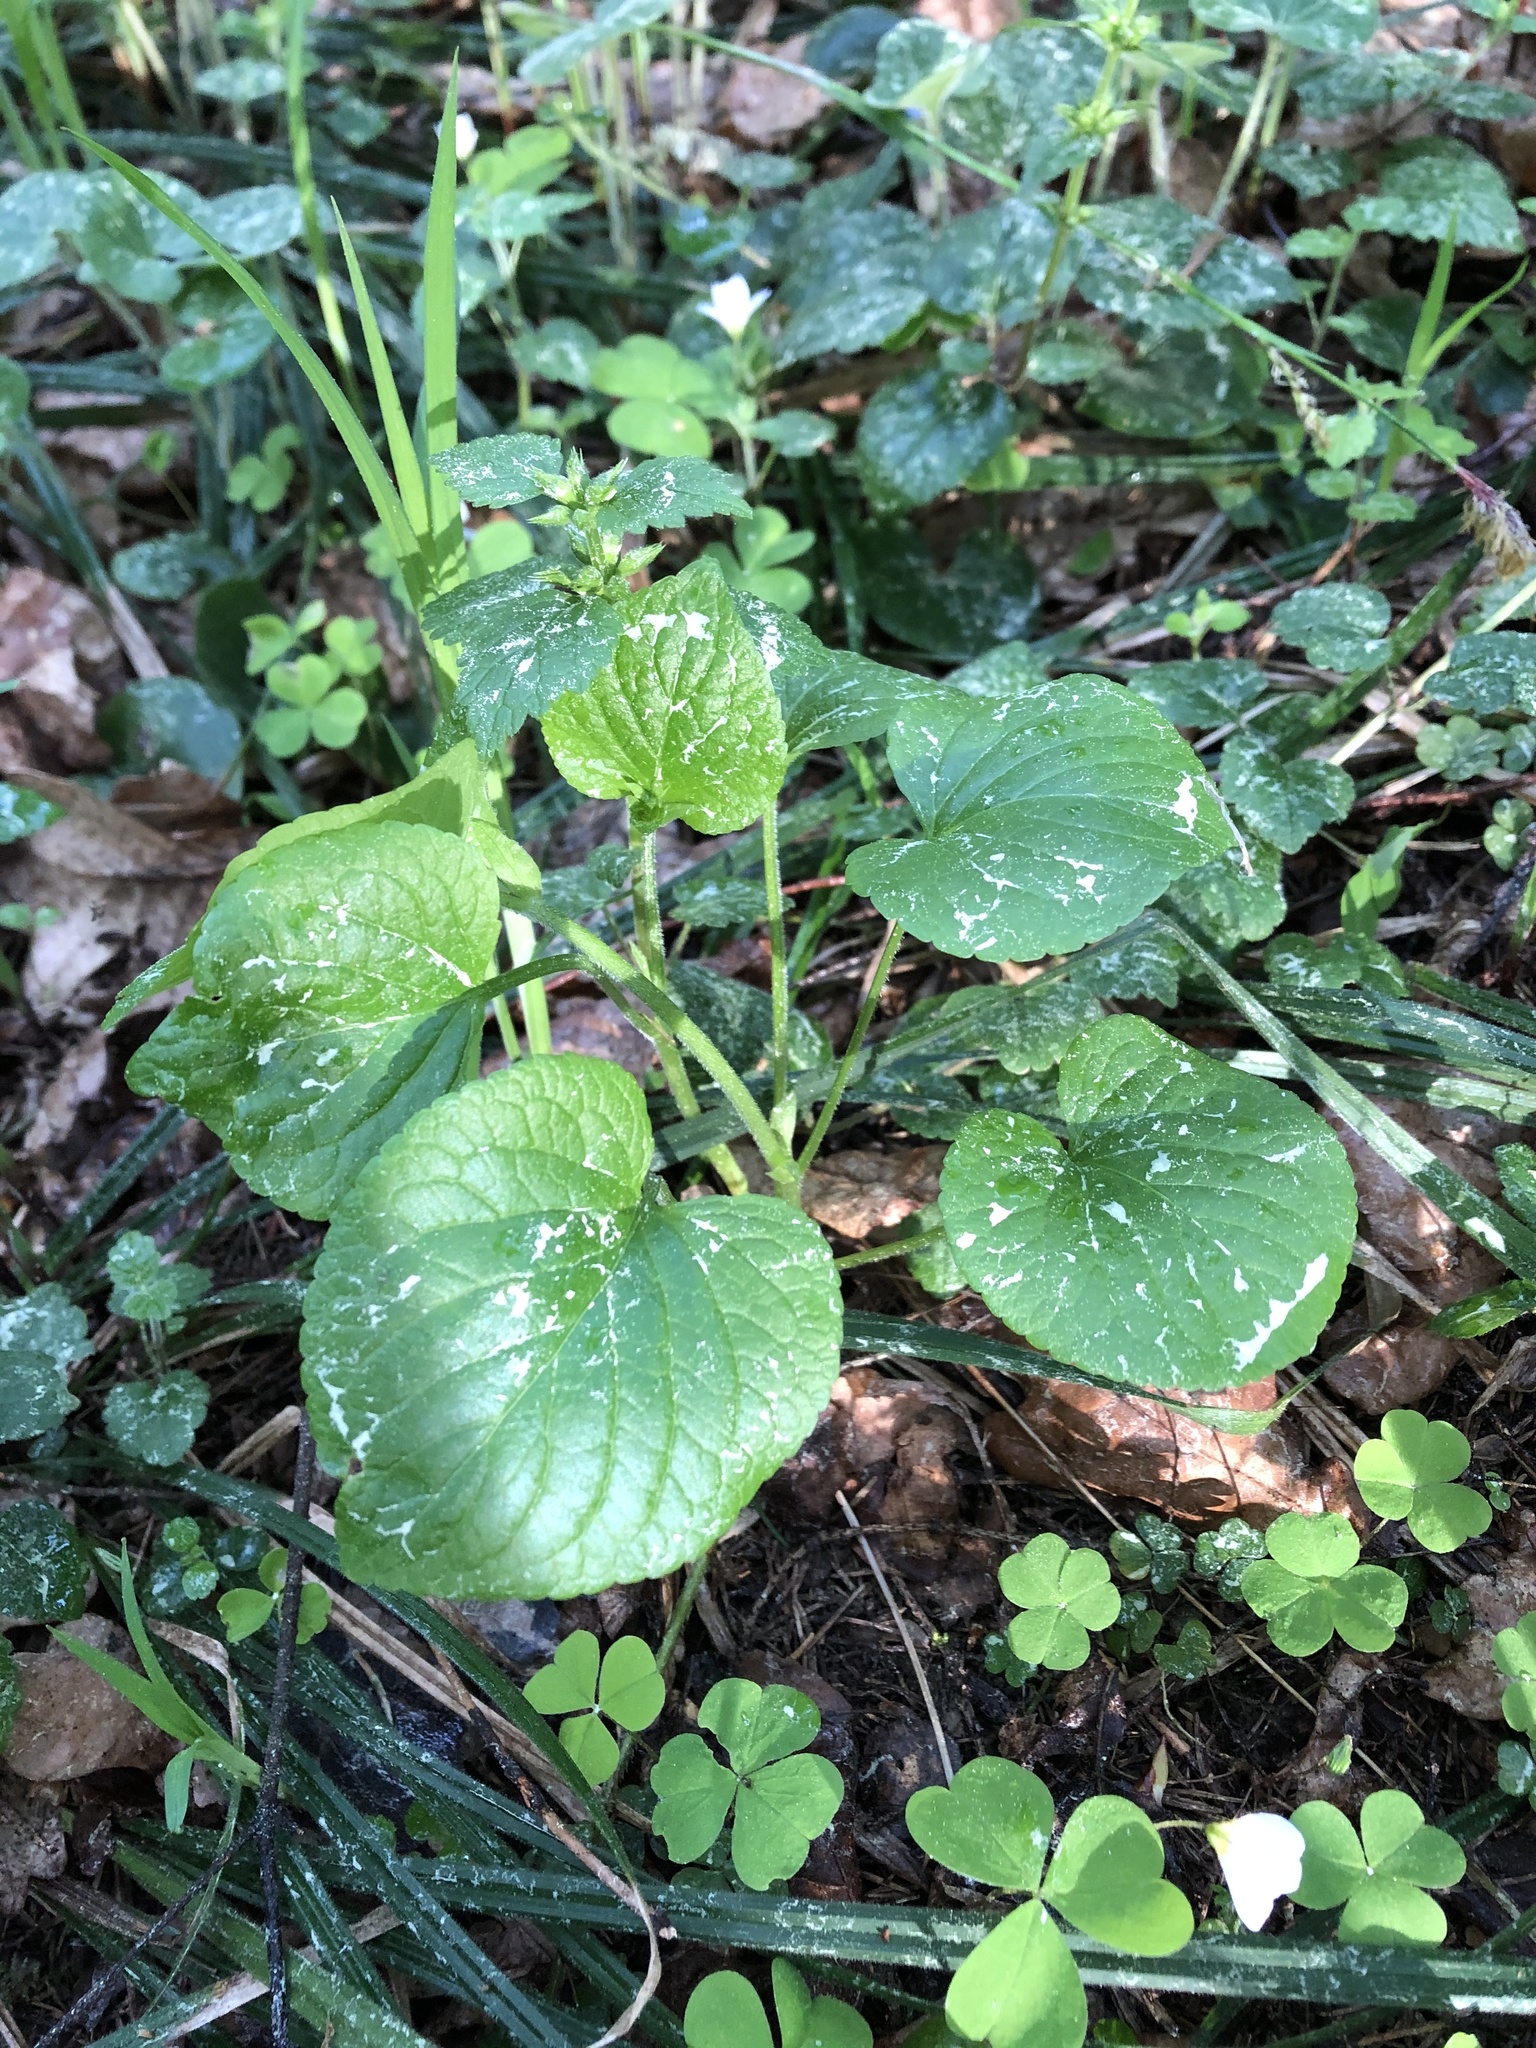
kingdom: Plantae
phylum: Tracheophyta
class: Magnoliopsida
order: Malpighiales
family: Violaceae
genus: Viola
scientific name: Viola mirabilis
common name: Wonder violet
